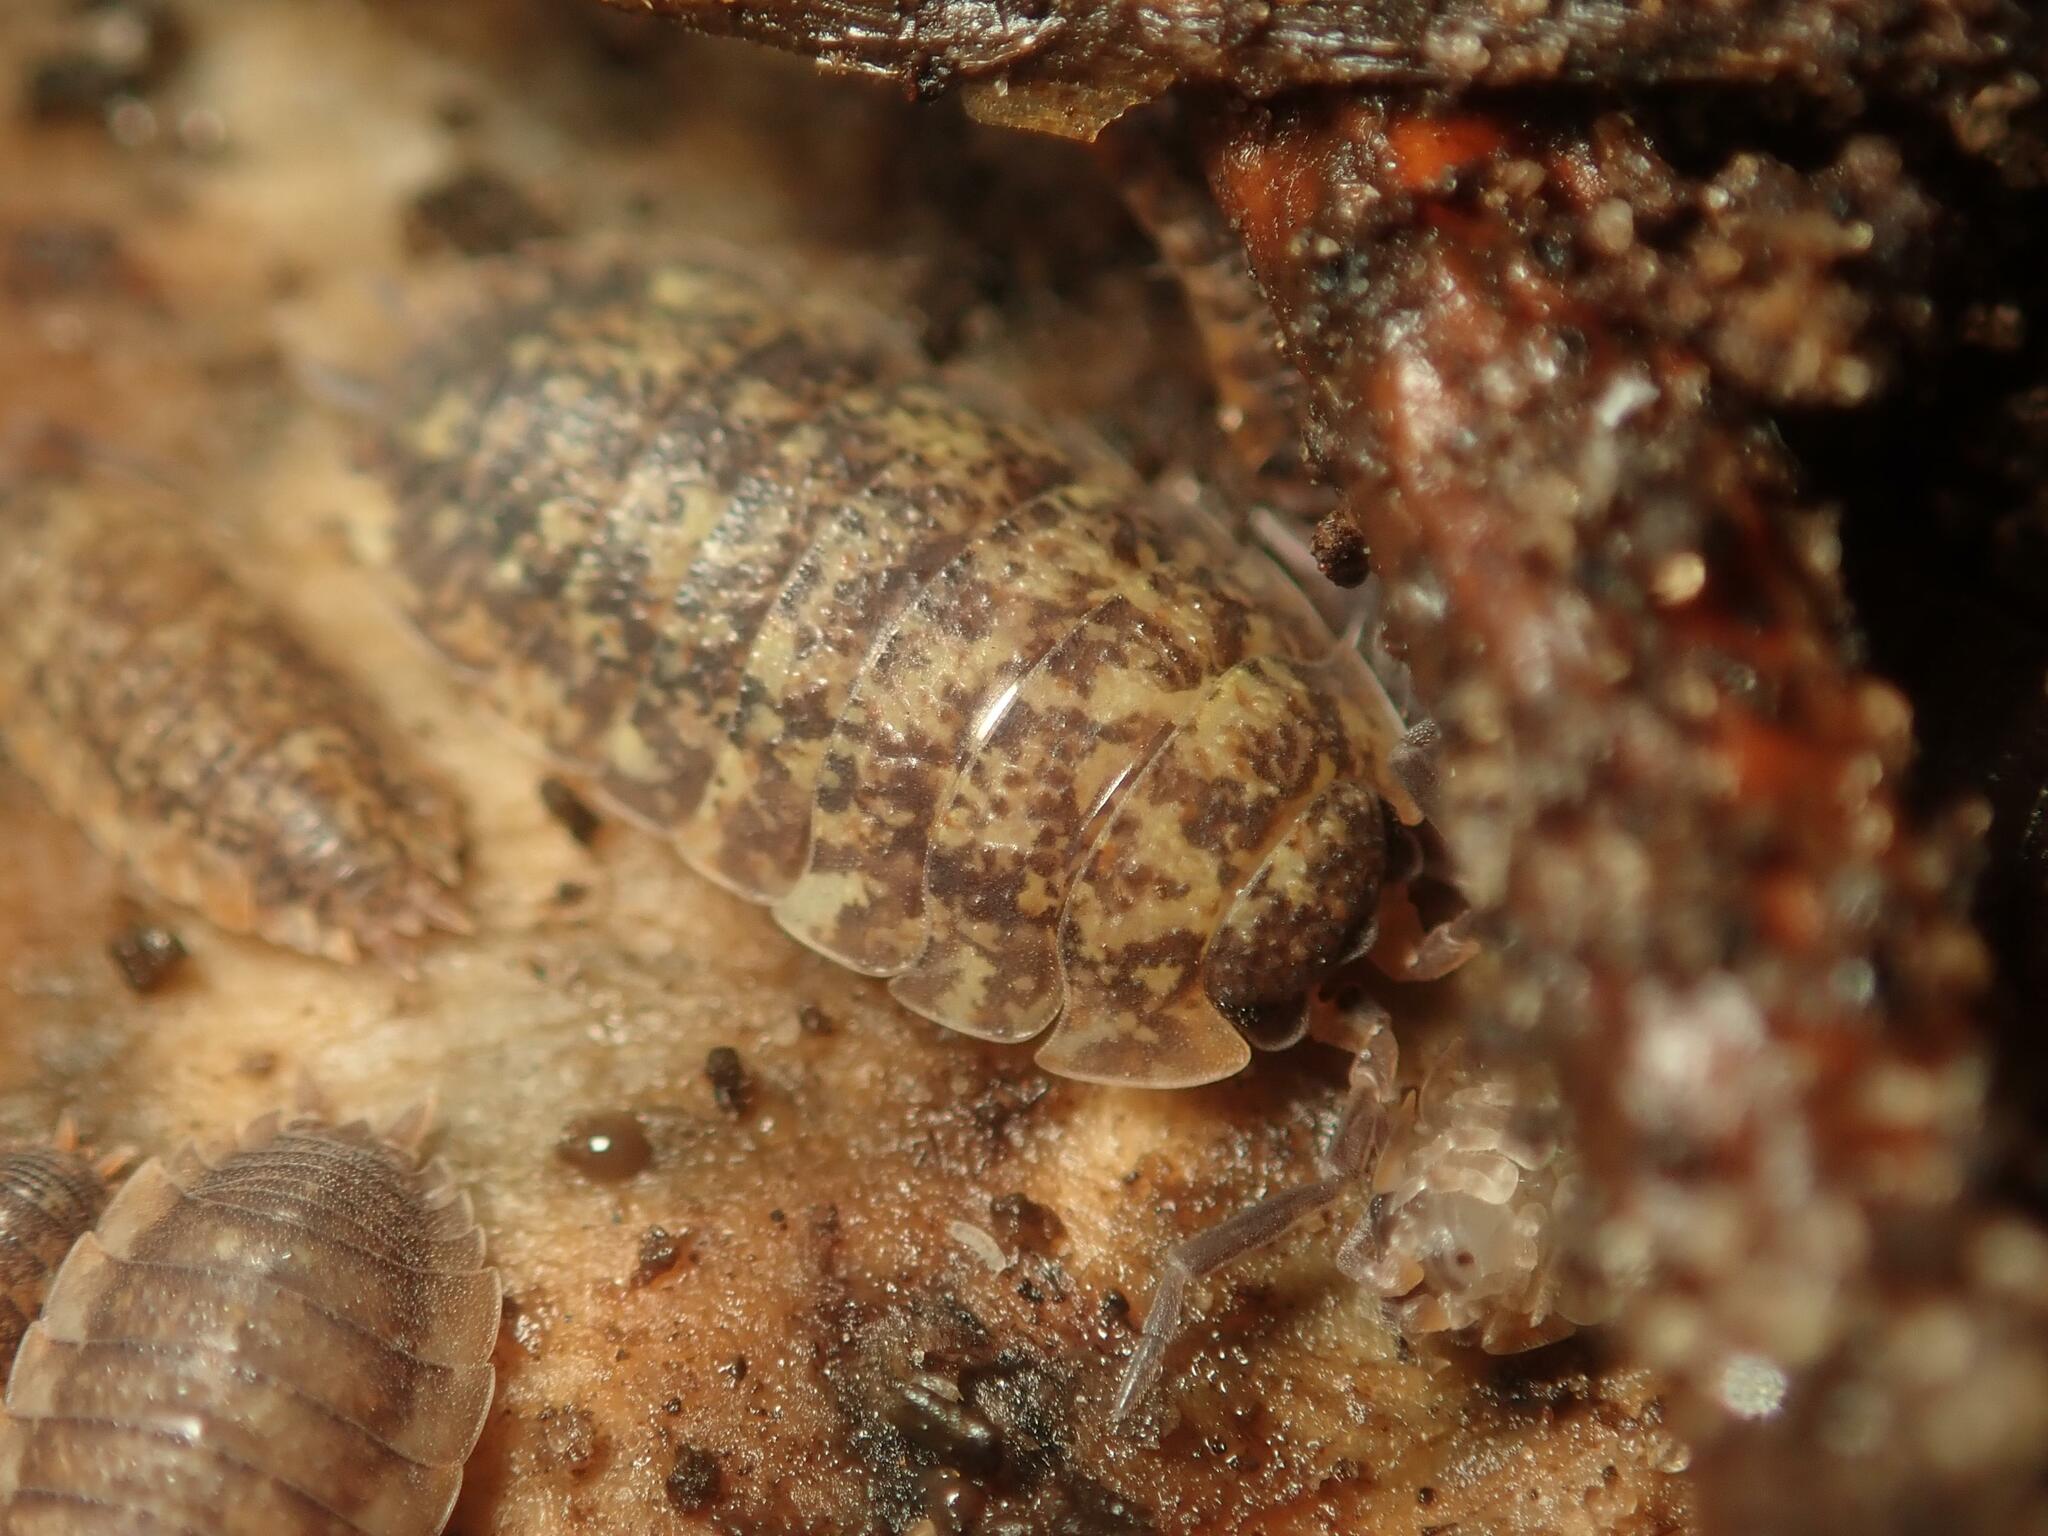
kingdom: Animalia
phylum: Arthropoda
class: Malacostraca
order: Isopoda
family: Porcellionidae
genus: Porcellio
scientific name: Porcellio scaber
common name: Common rough woodlouse
